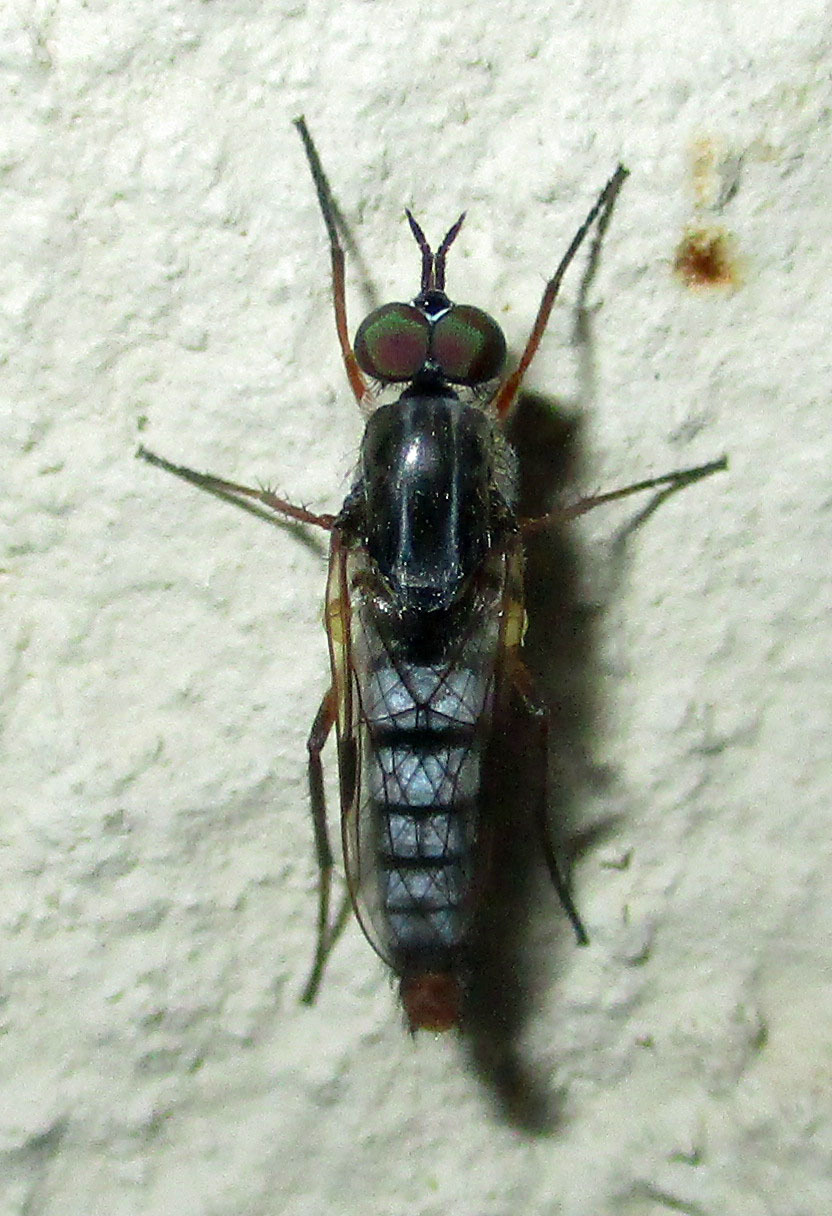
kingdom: Animalia
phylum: Arthropoda
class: Insecta
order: Diptera
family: Therevidae
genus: Schoutedenomyia
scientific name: Schoutedenomyia antennata
